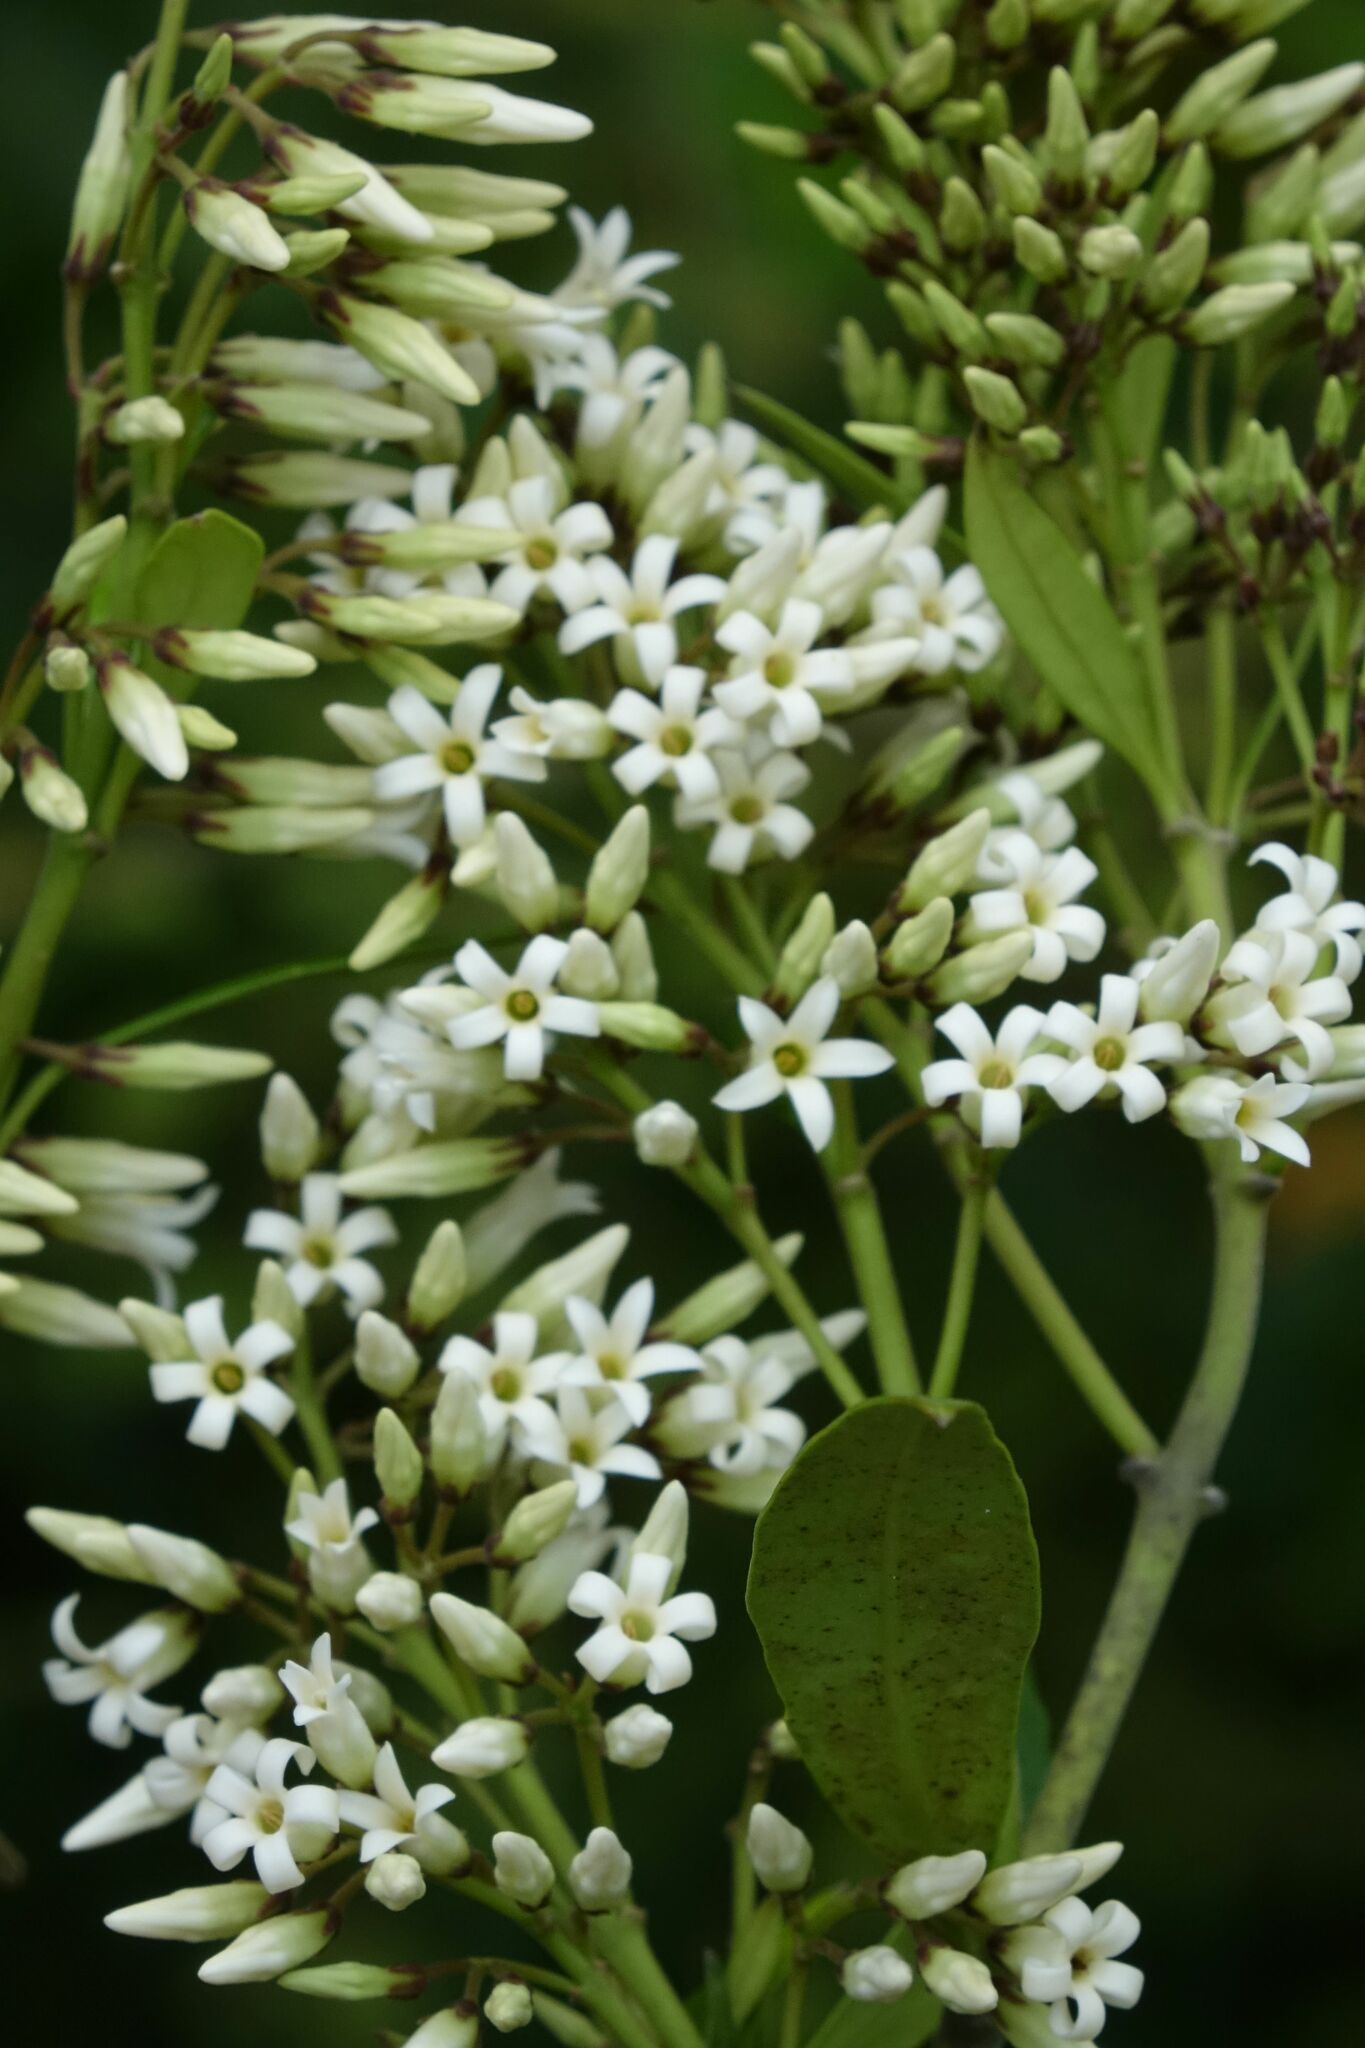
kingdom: Plantae
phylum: Tracheophyta
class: Magnoliopsida
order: Gentianales
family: Apocynaceae
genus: Parsonsia
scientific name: Parsonsia heterophylla
